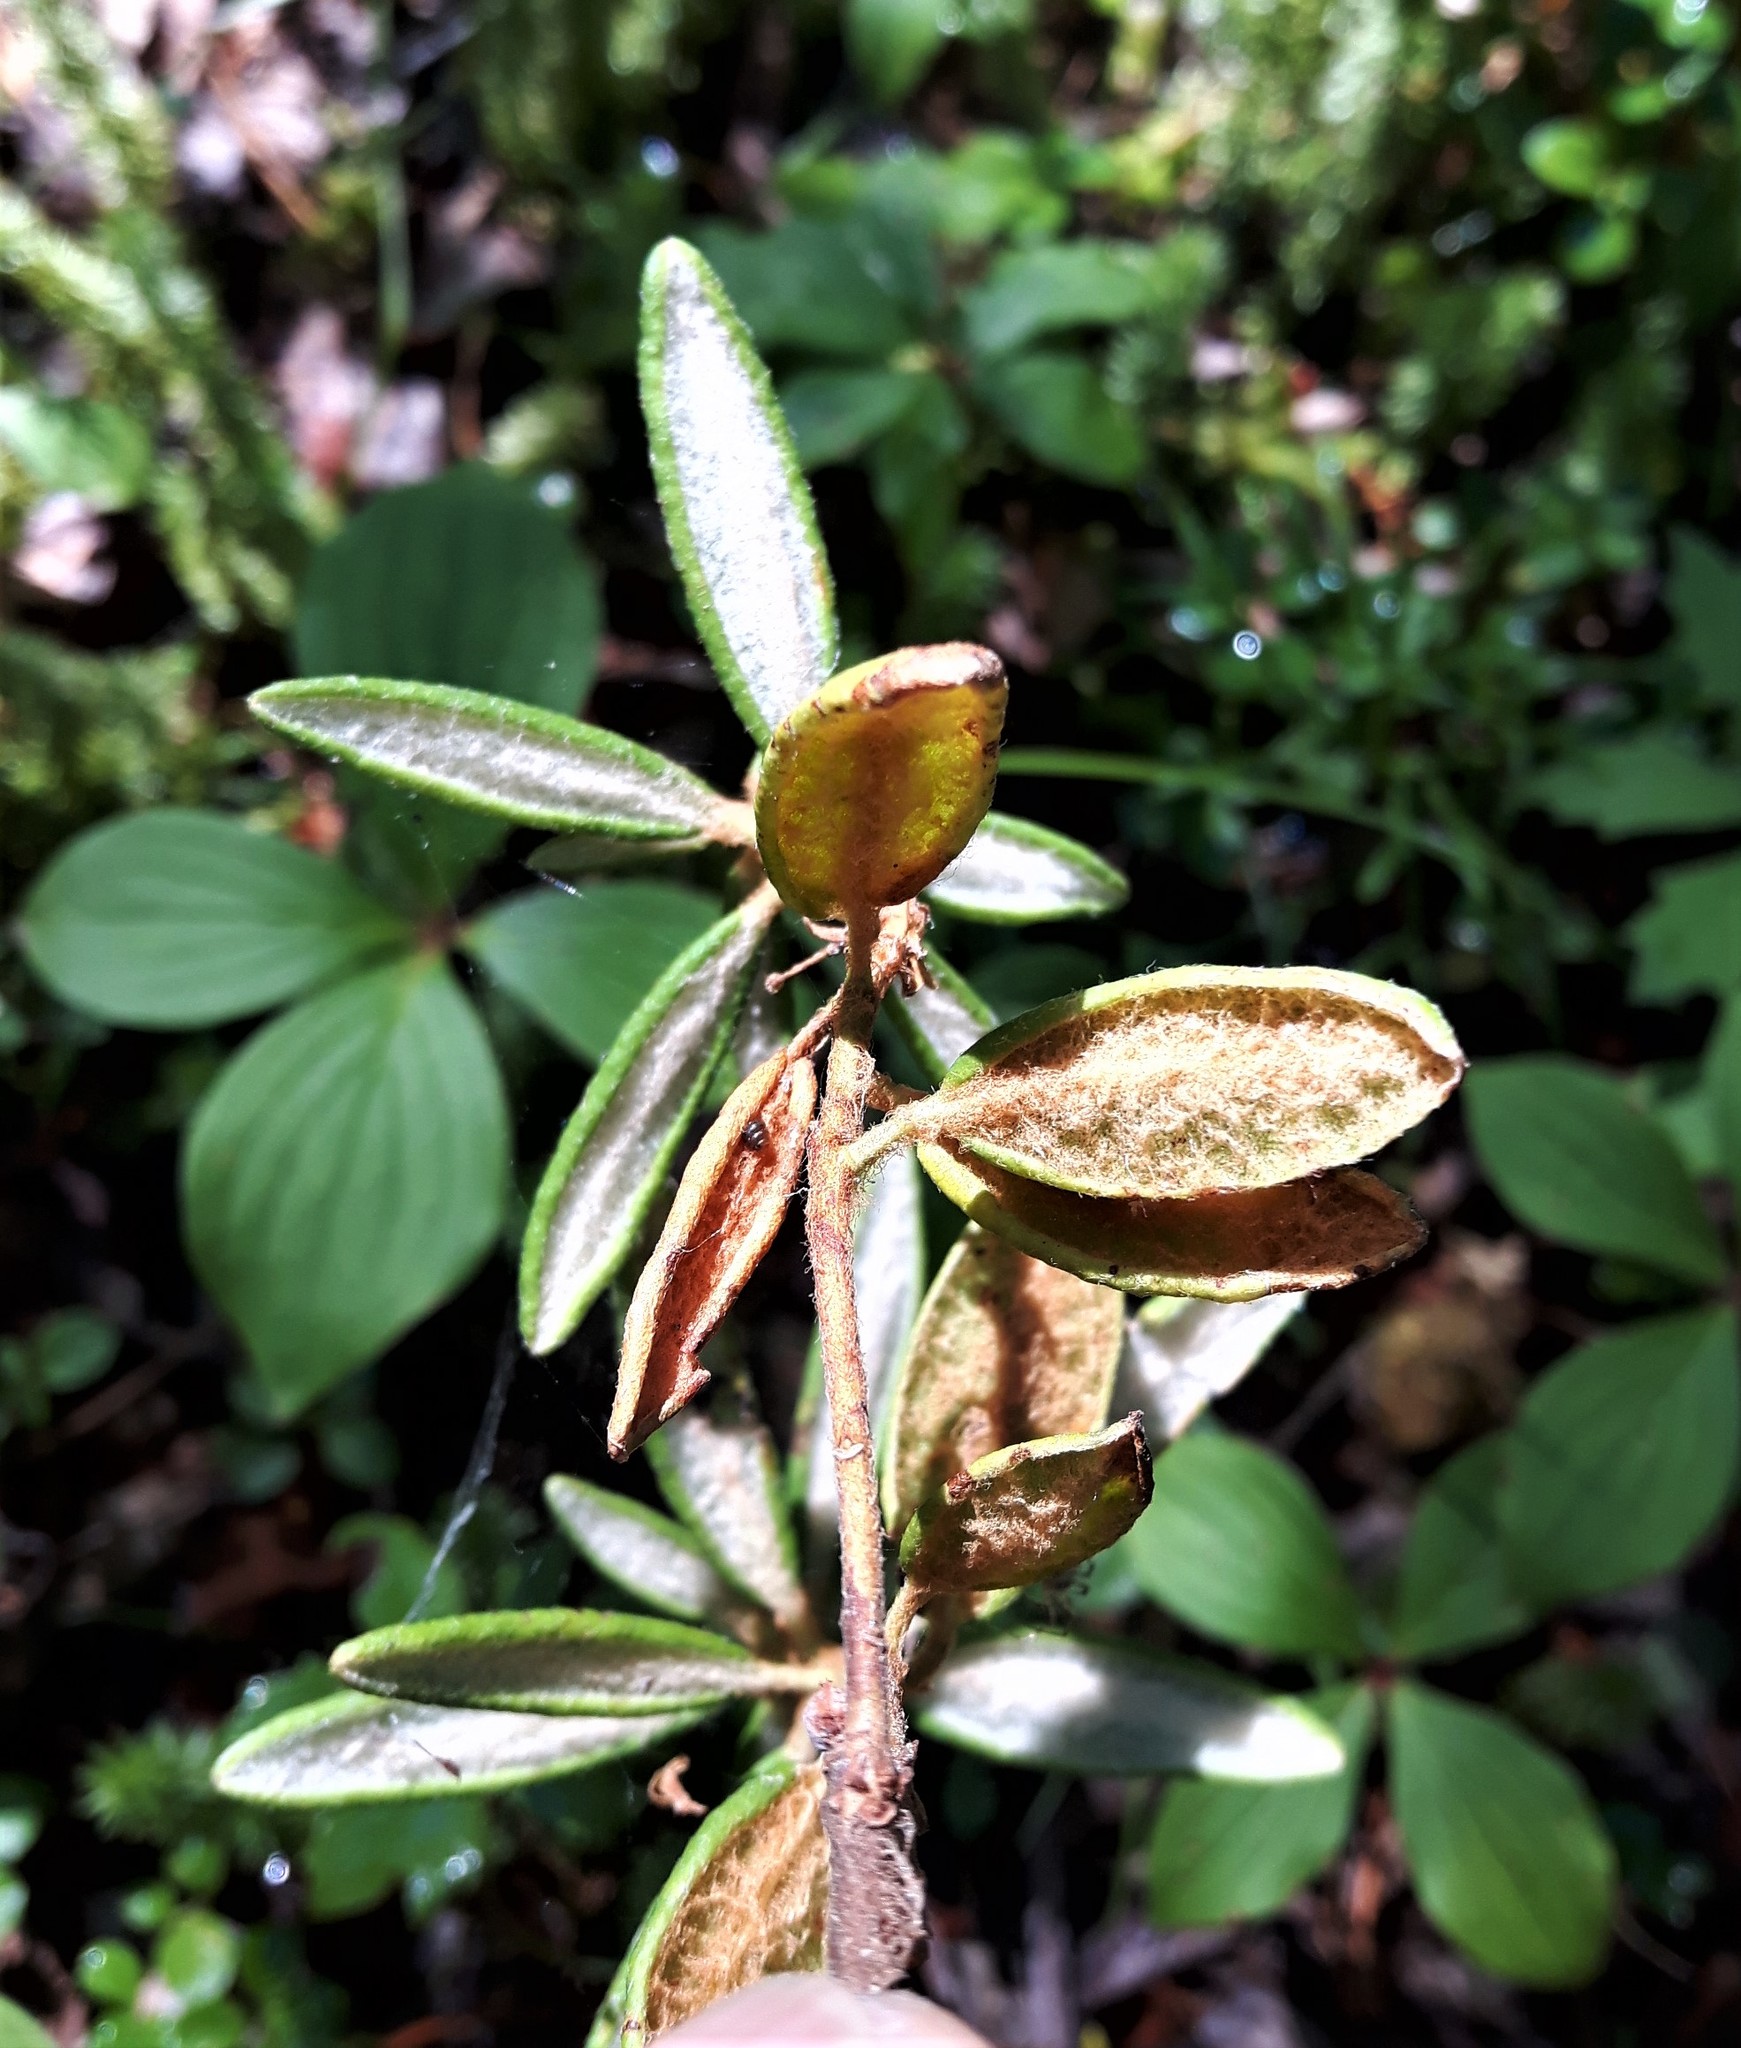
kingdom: Plantae
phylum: Tracheophyta
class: Magnoliopsida
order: Ericales
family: Ericaceae
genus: Rhododendron
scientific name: Rhododendron groenlandicum
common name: Bog labrador tea
